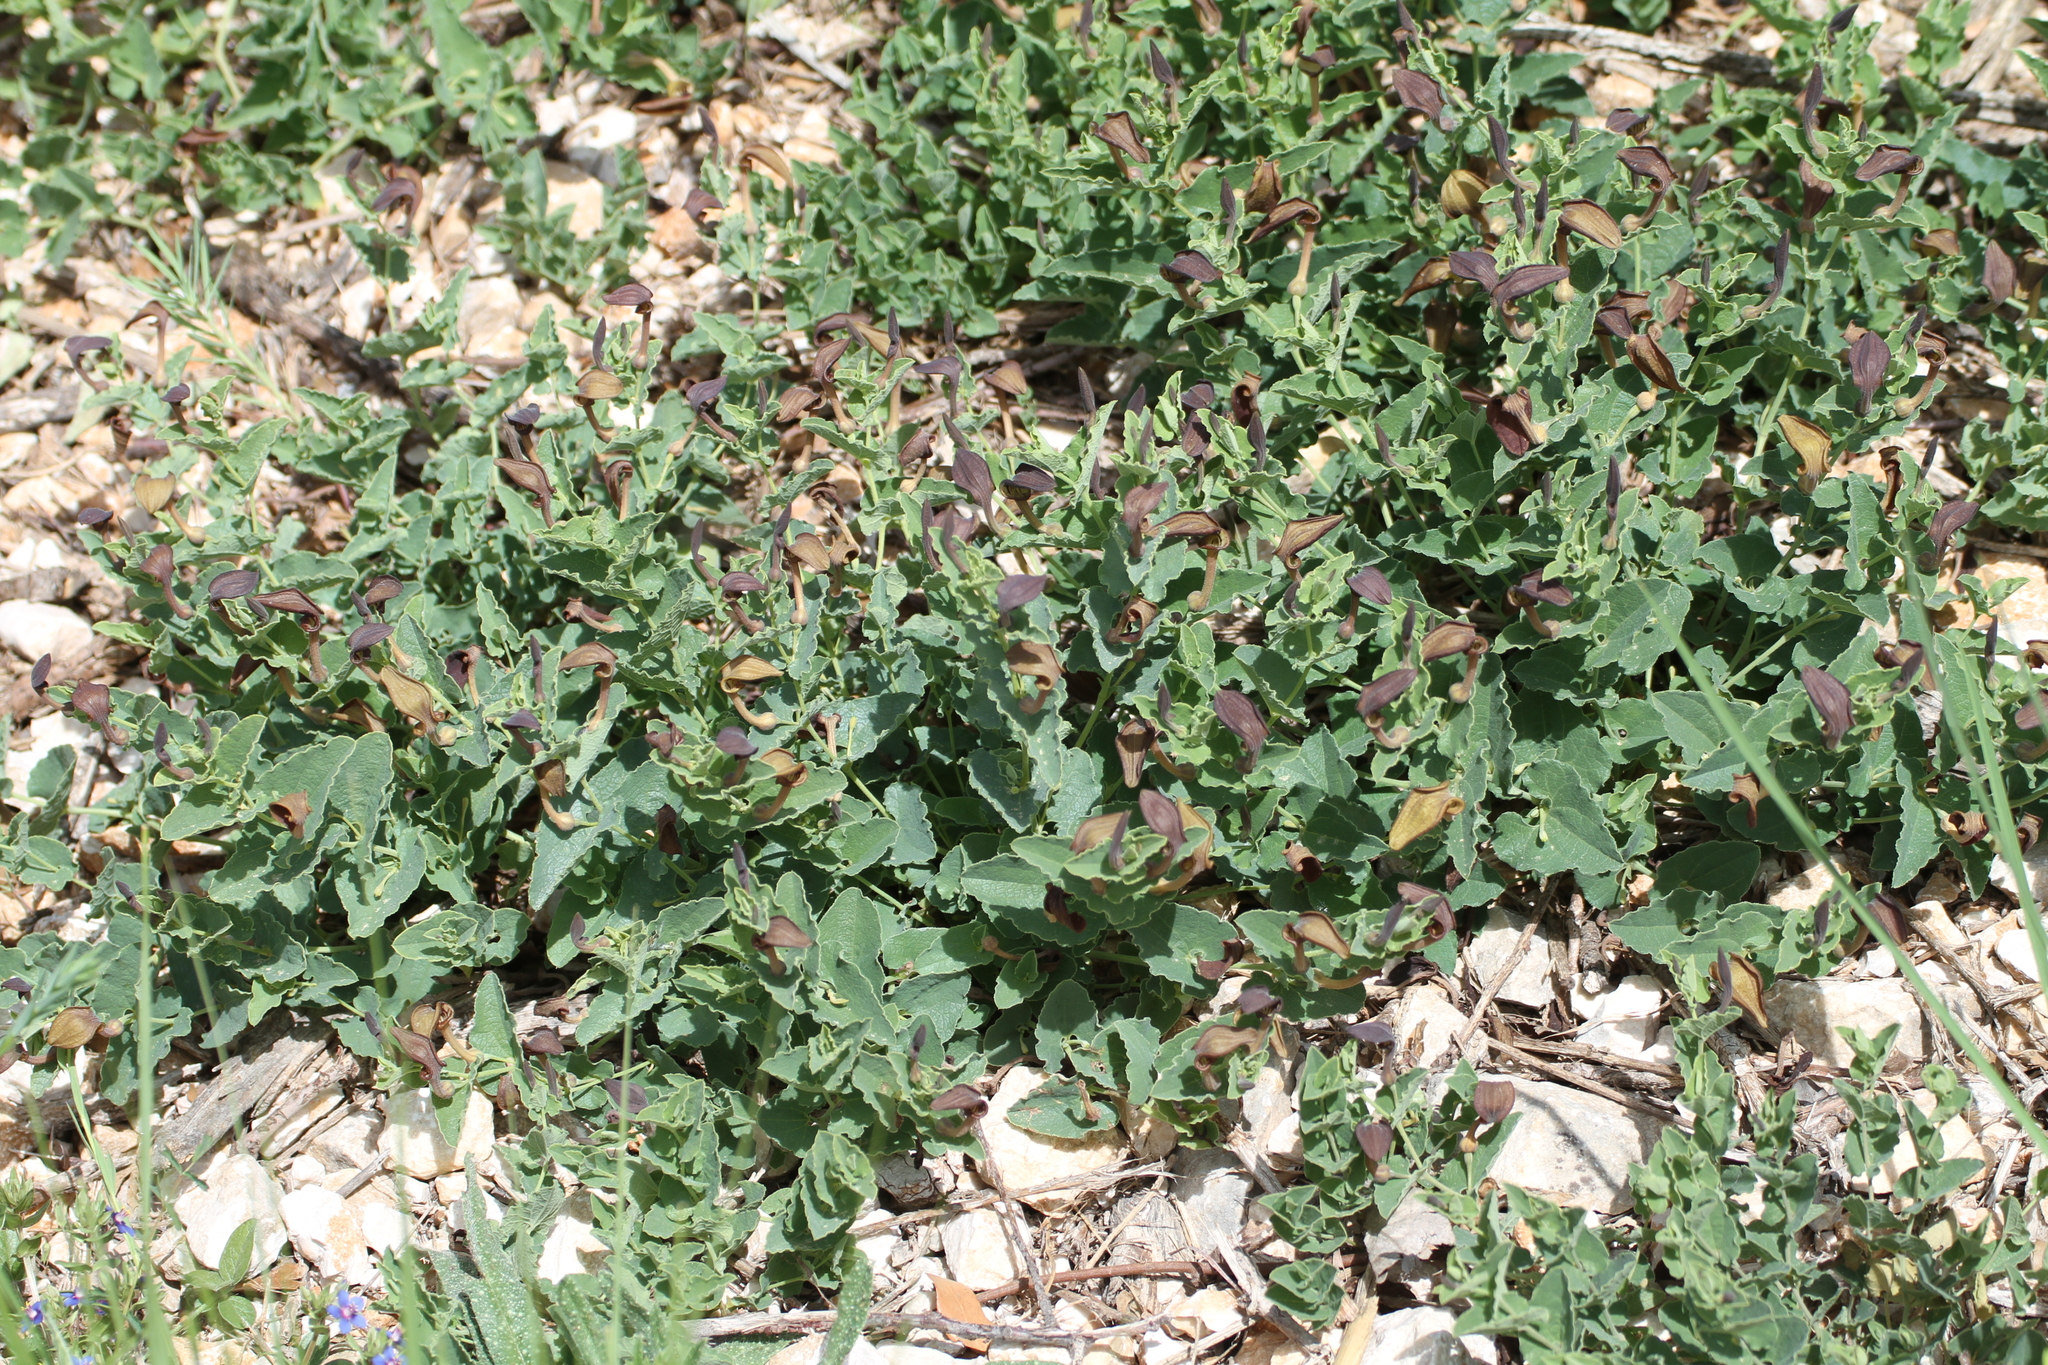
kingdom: Plantae
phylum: Tracheophyta
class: Magnoliopsida
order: Piperales
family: Aristolochiaceae
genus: Aristolochia
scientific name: Aristolochia pistolochia
